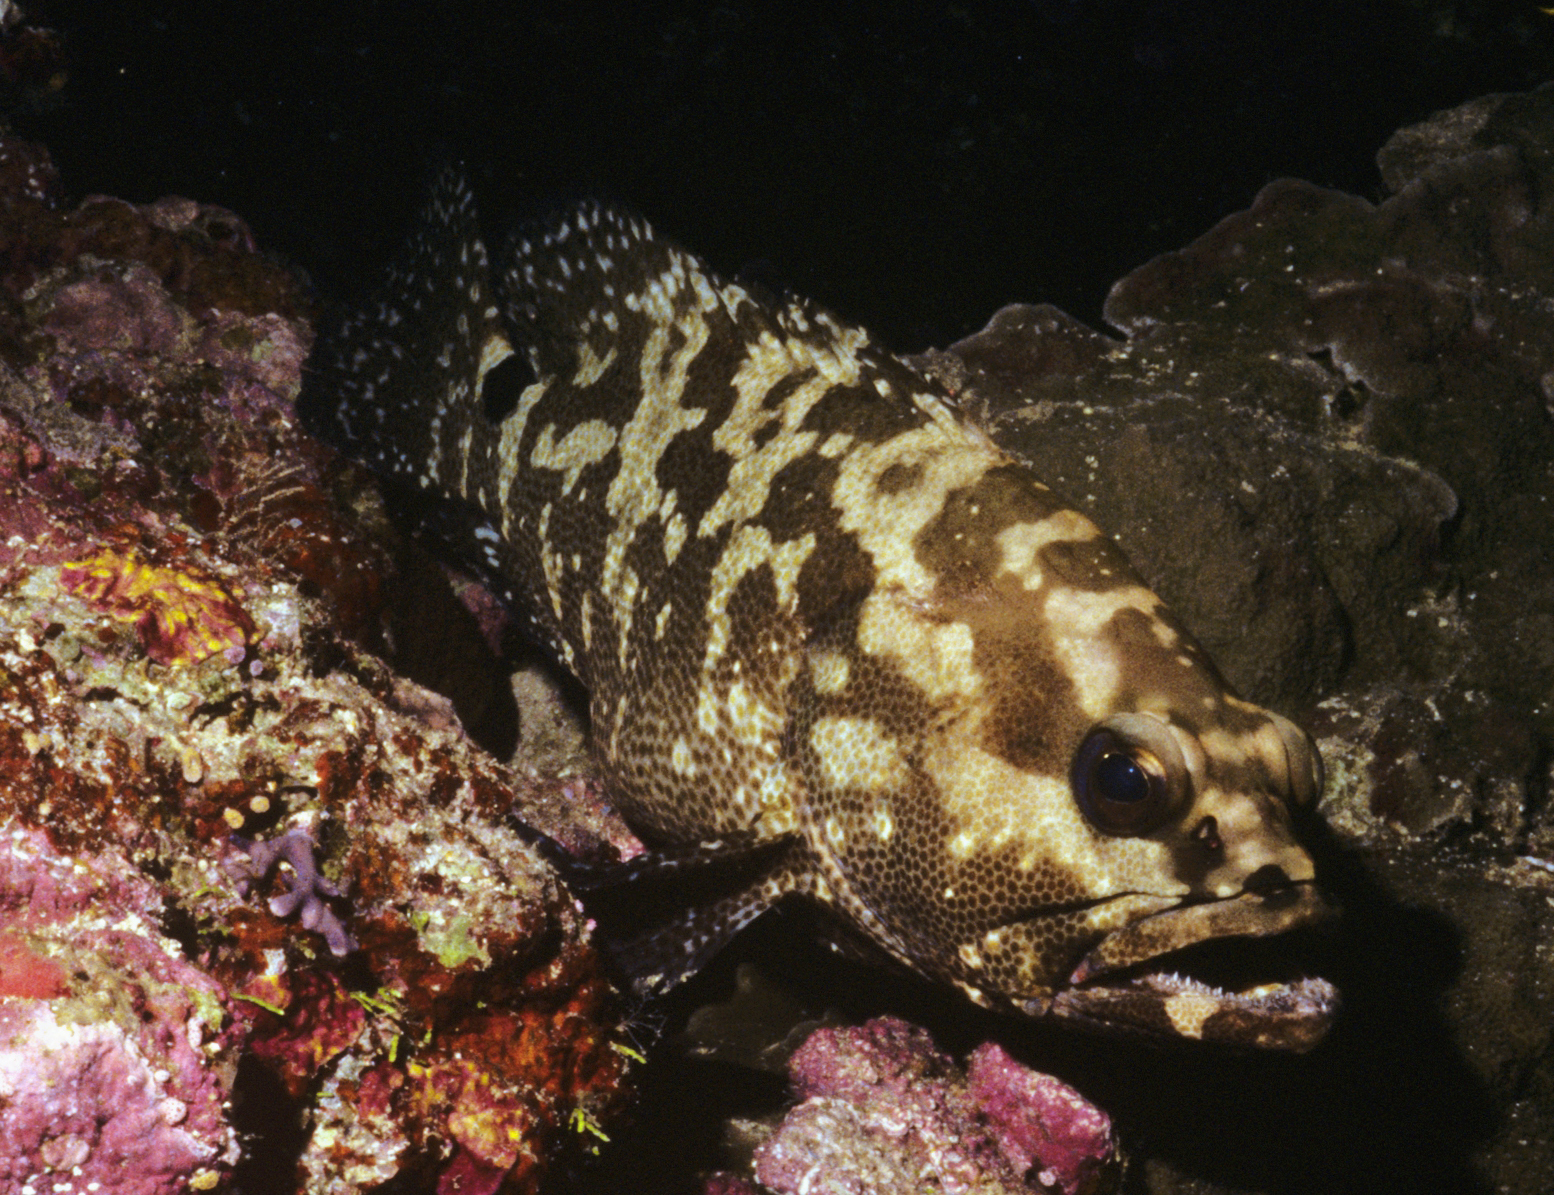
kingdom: Animalia
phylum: Chordata
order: Perciformes
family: Serranidae
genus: Epinephelus
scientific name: Epinephelus polyphekadion
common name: Camouflage grouper
